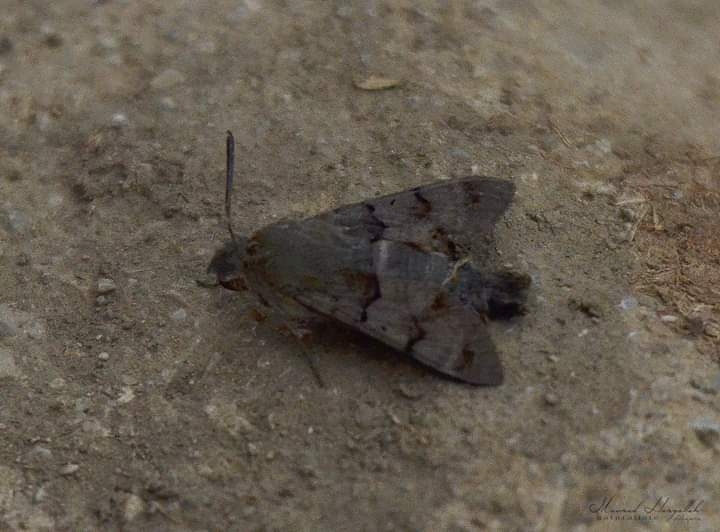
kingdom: Animalia
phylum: Arthropoda
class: Insecta
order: Lepidoptera
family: Sphingidae
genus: Macroglossum
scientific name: Macroglossum stellatarum
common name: Humming-bird hawk-moth
